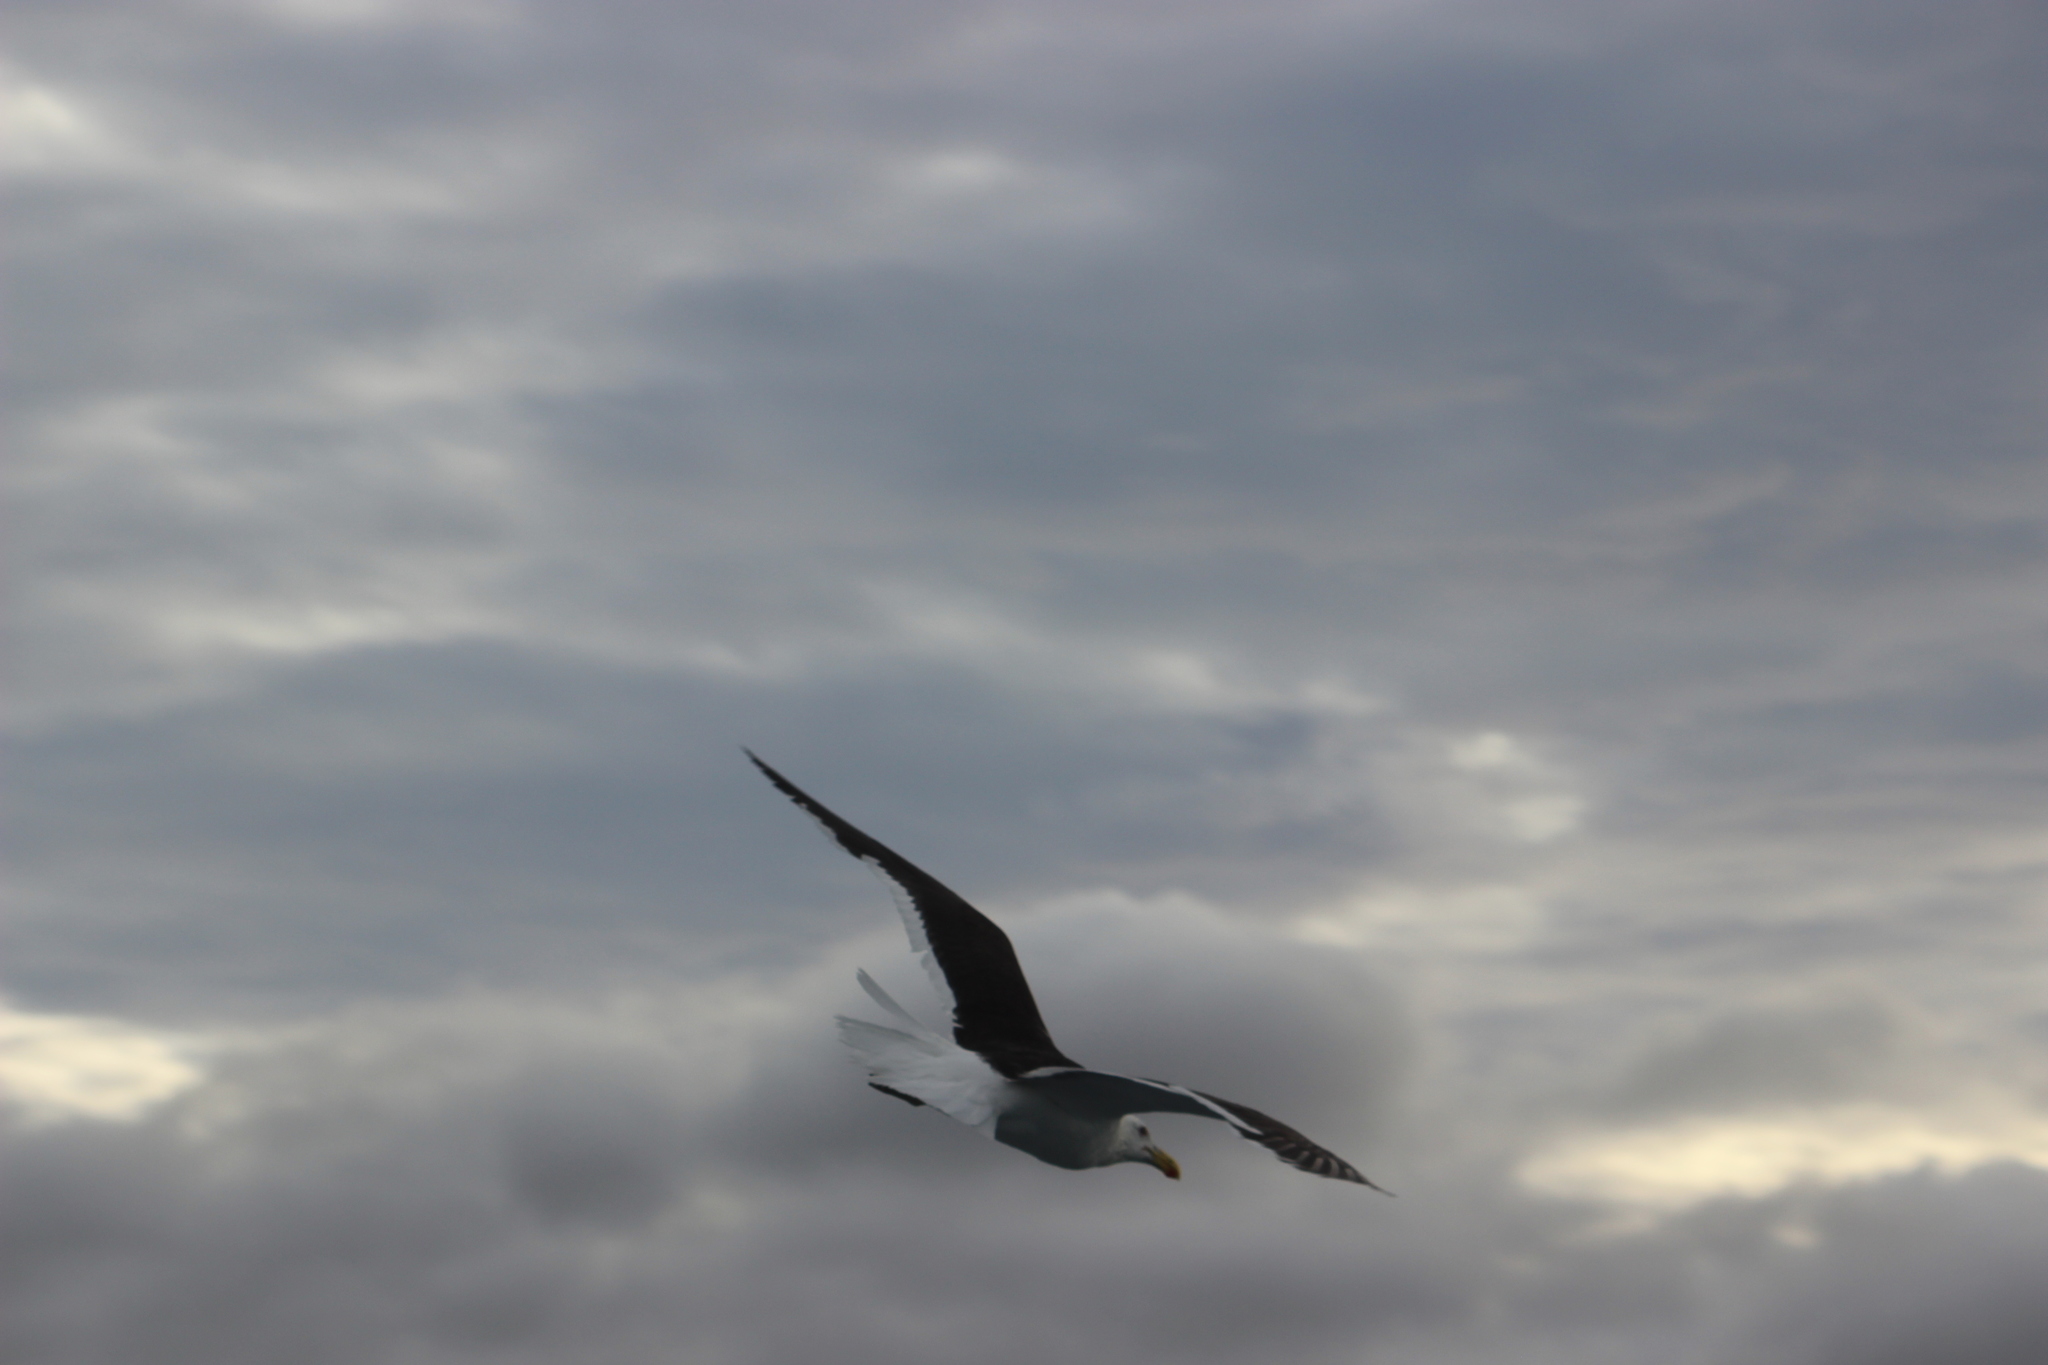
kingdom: Animalia
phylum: Chordata
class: Aves
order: Charadriiformes
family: Laridae
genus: Larus
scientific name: Larus dominicanus
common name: Kelp gull
